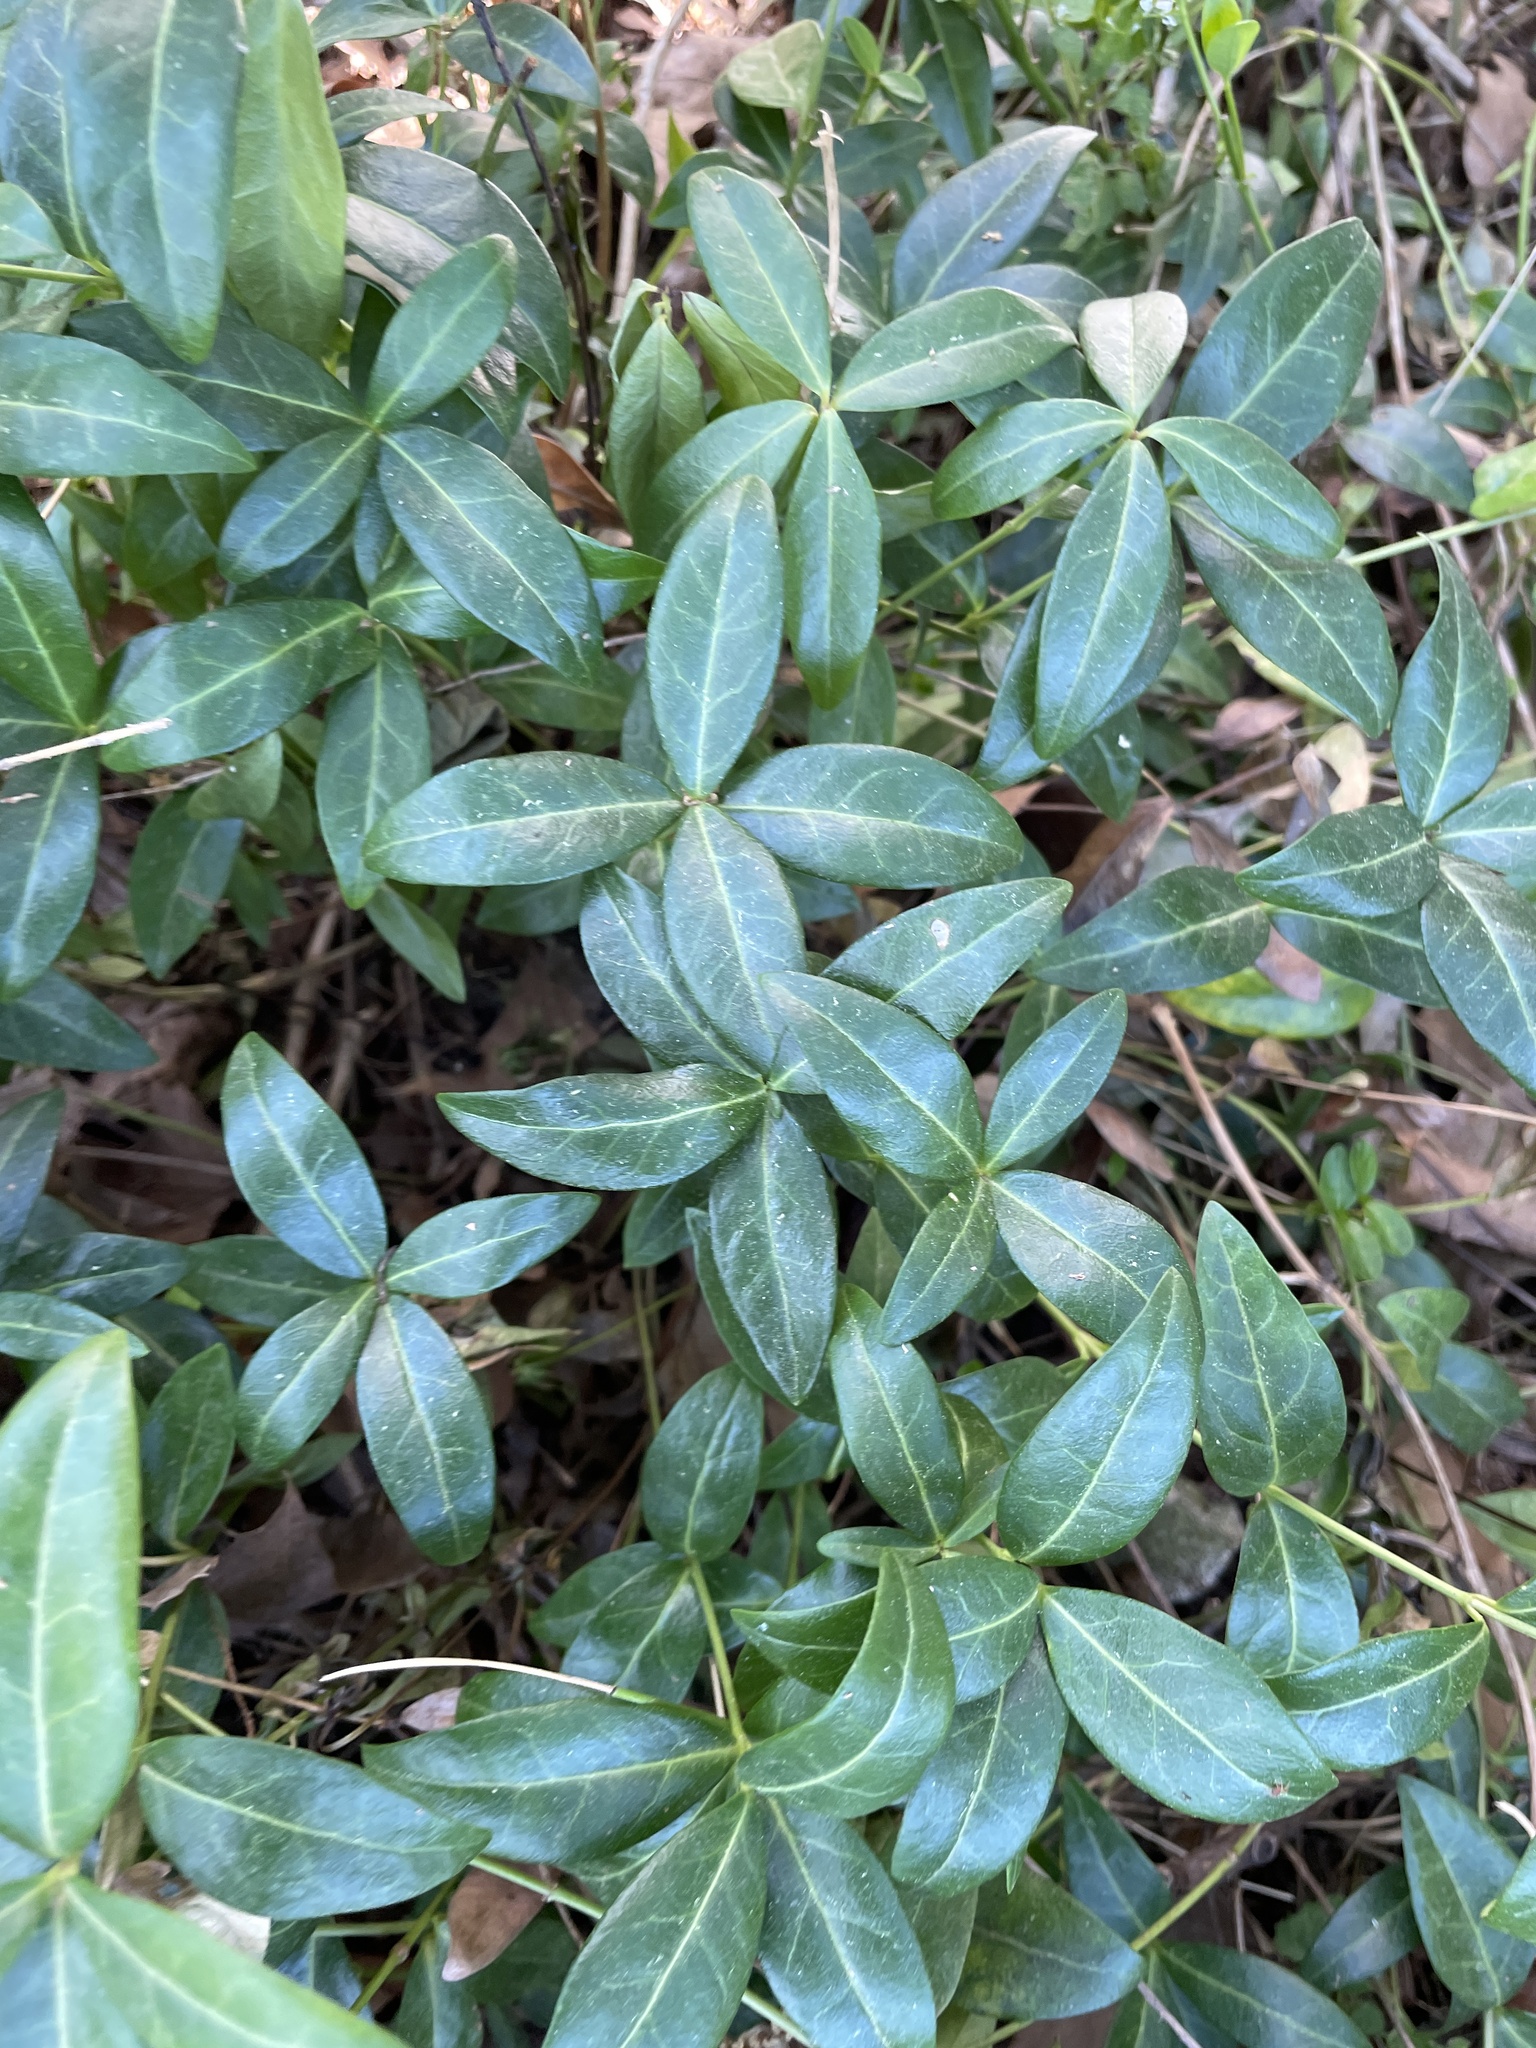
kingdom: Plantae
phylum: Tracheophyta
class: Magnoliopsida
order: Gentianales
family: Apocynaceae
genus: Vinca
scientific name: Vinca minor
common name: Lesser periwinkle
